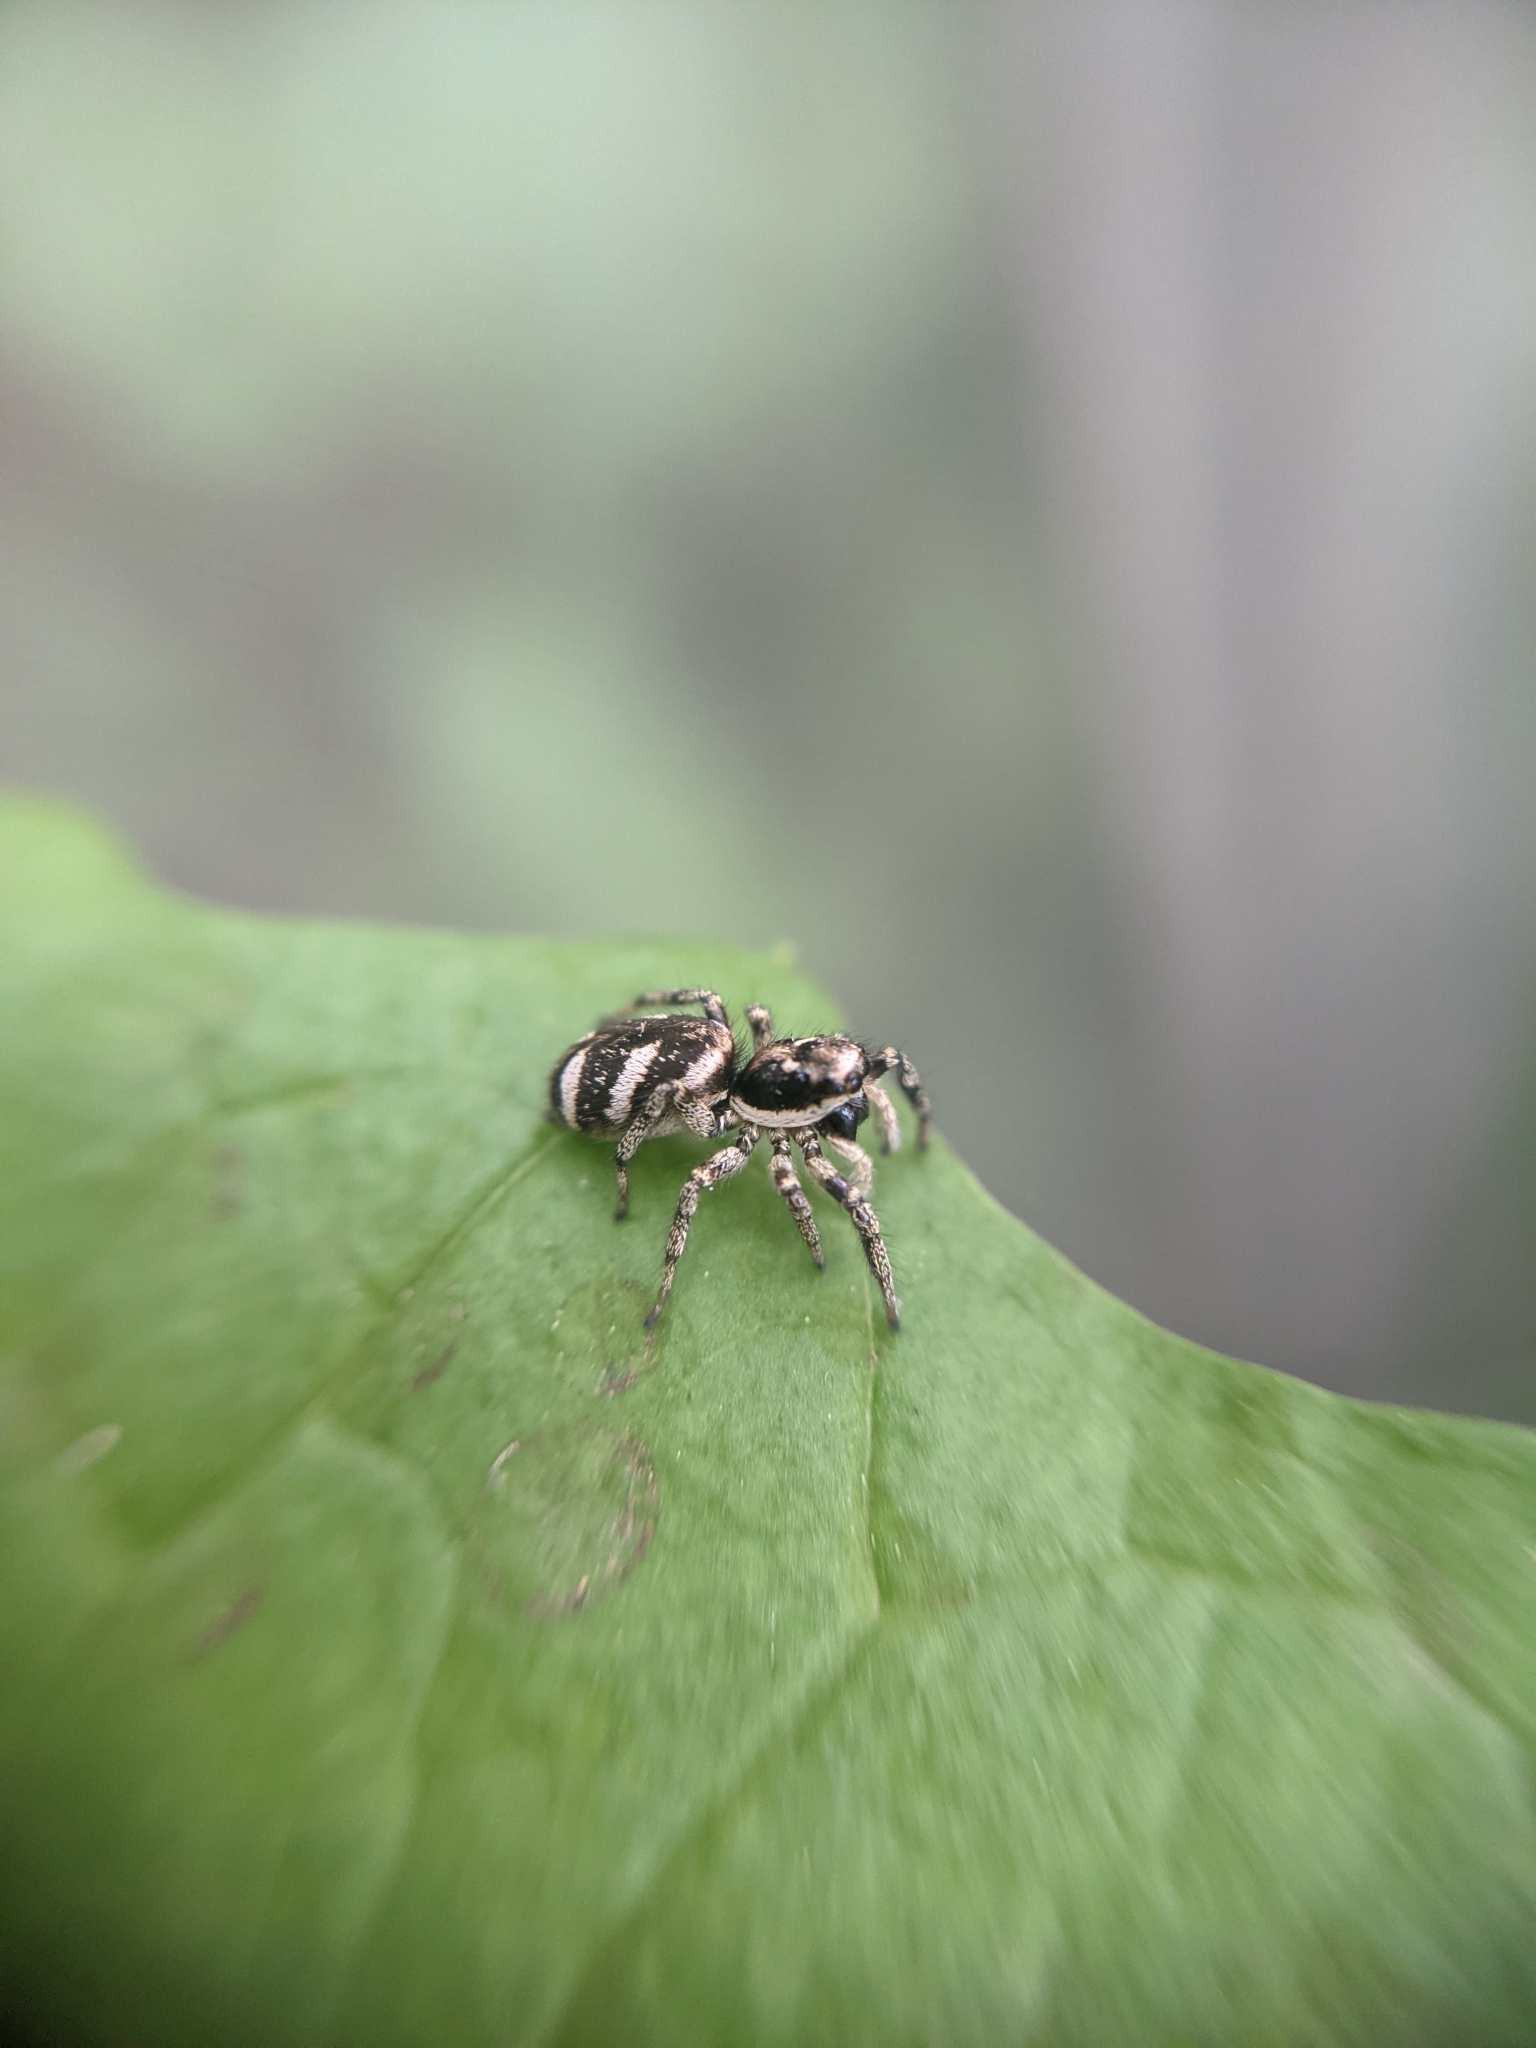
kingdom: Animalia
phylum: Arthropoda
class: Arachnida
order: Araneae
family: Salticidae
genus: Salticus
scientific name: Salticus scenicus
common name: Zebra jumper
